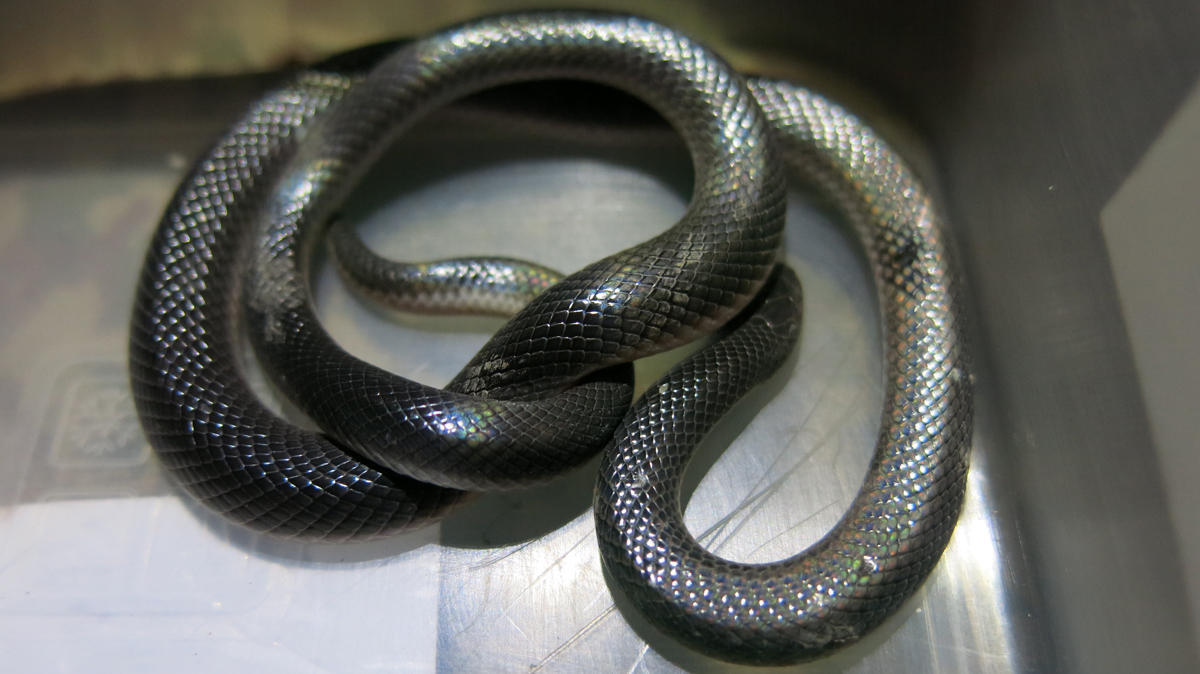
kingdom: Animalia
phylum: Chordata
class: Squamata
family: Atractaspididae
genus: Atractaspis
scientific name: Atractaspis bibronii
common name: Bibron's burrowing asp
